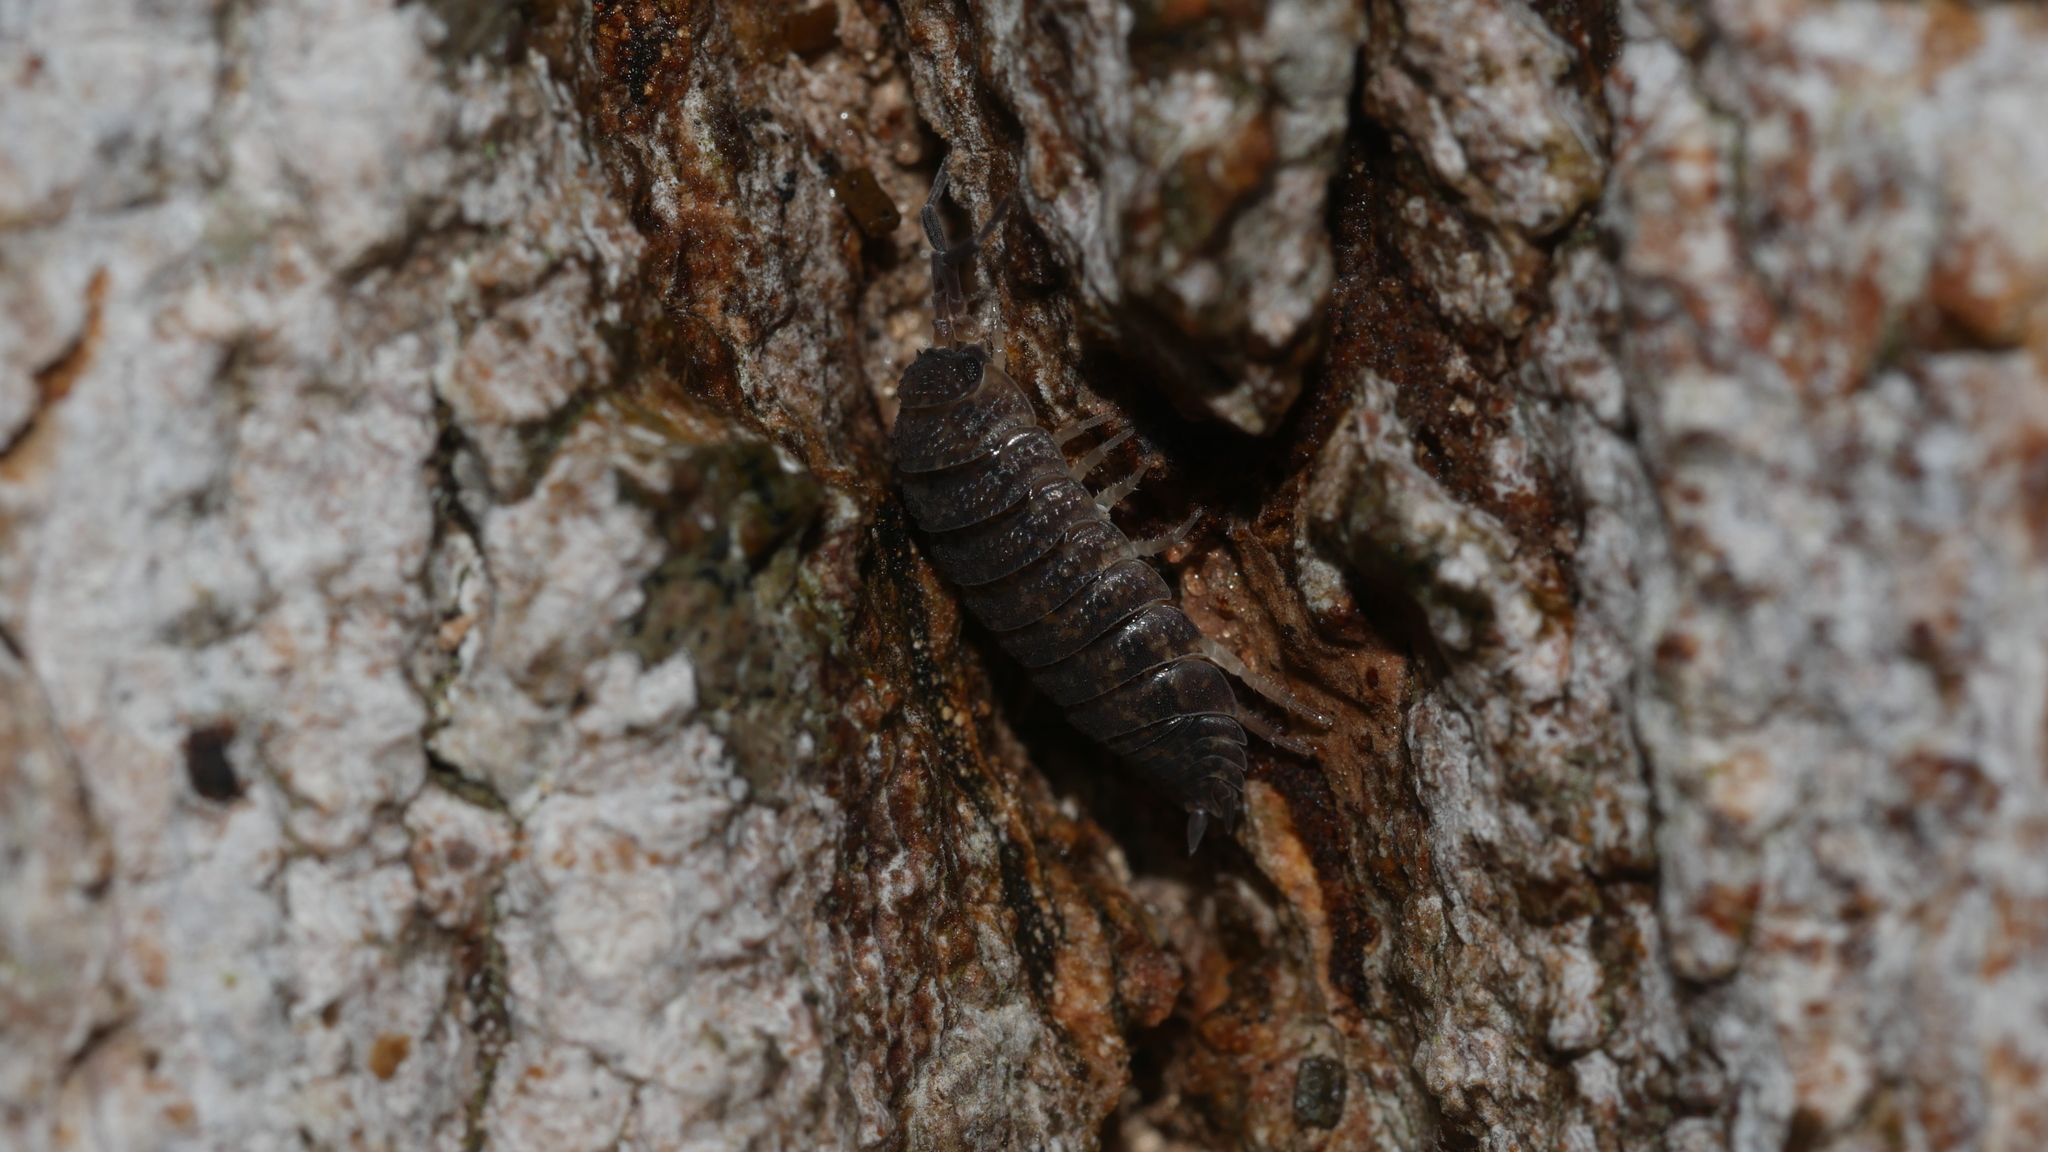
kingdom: Animalia
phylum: Arthropoda
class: Malacostraca
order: Isopoda
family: Porcellionidae
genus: Porcellio
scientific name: Porcellio scaber
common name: Common rough woodlouse
